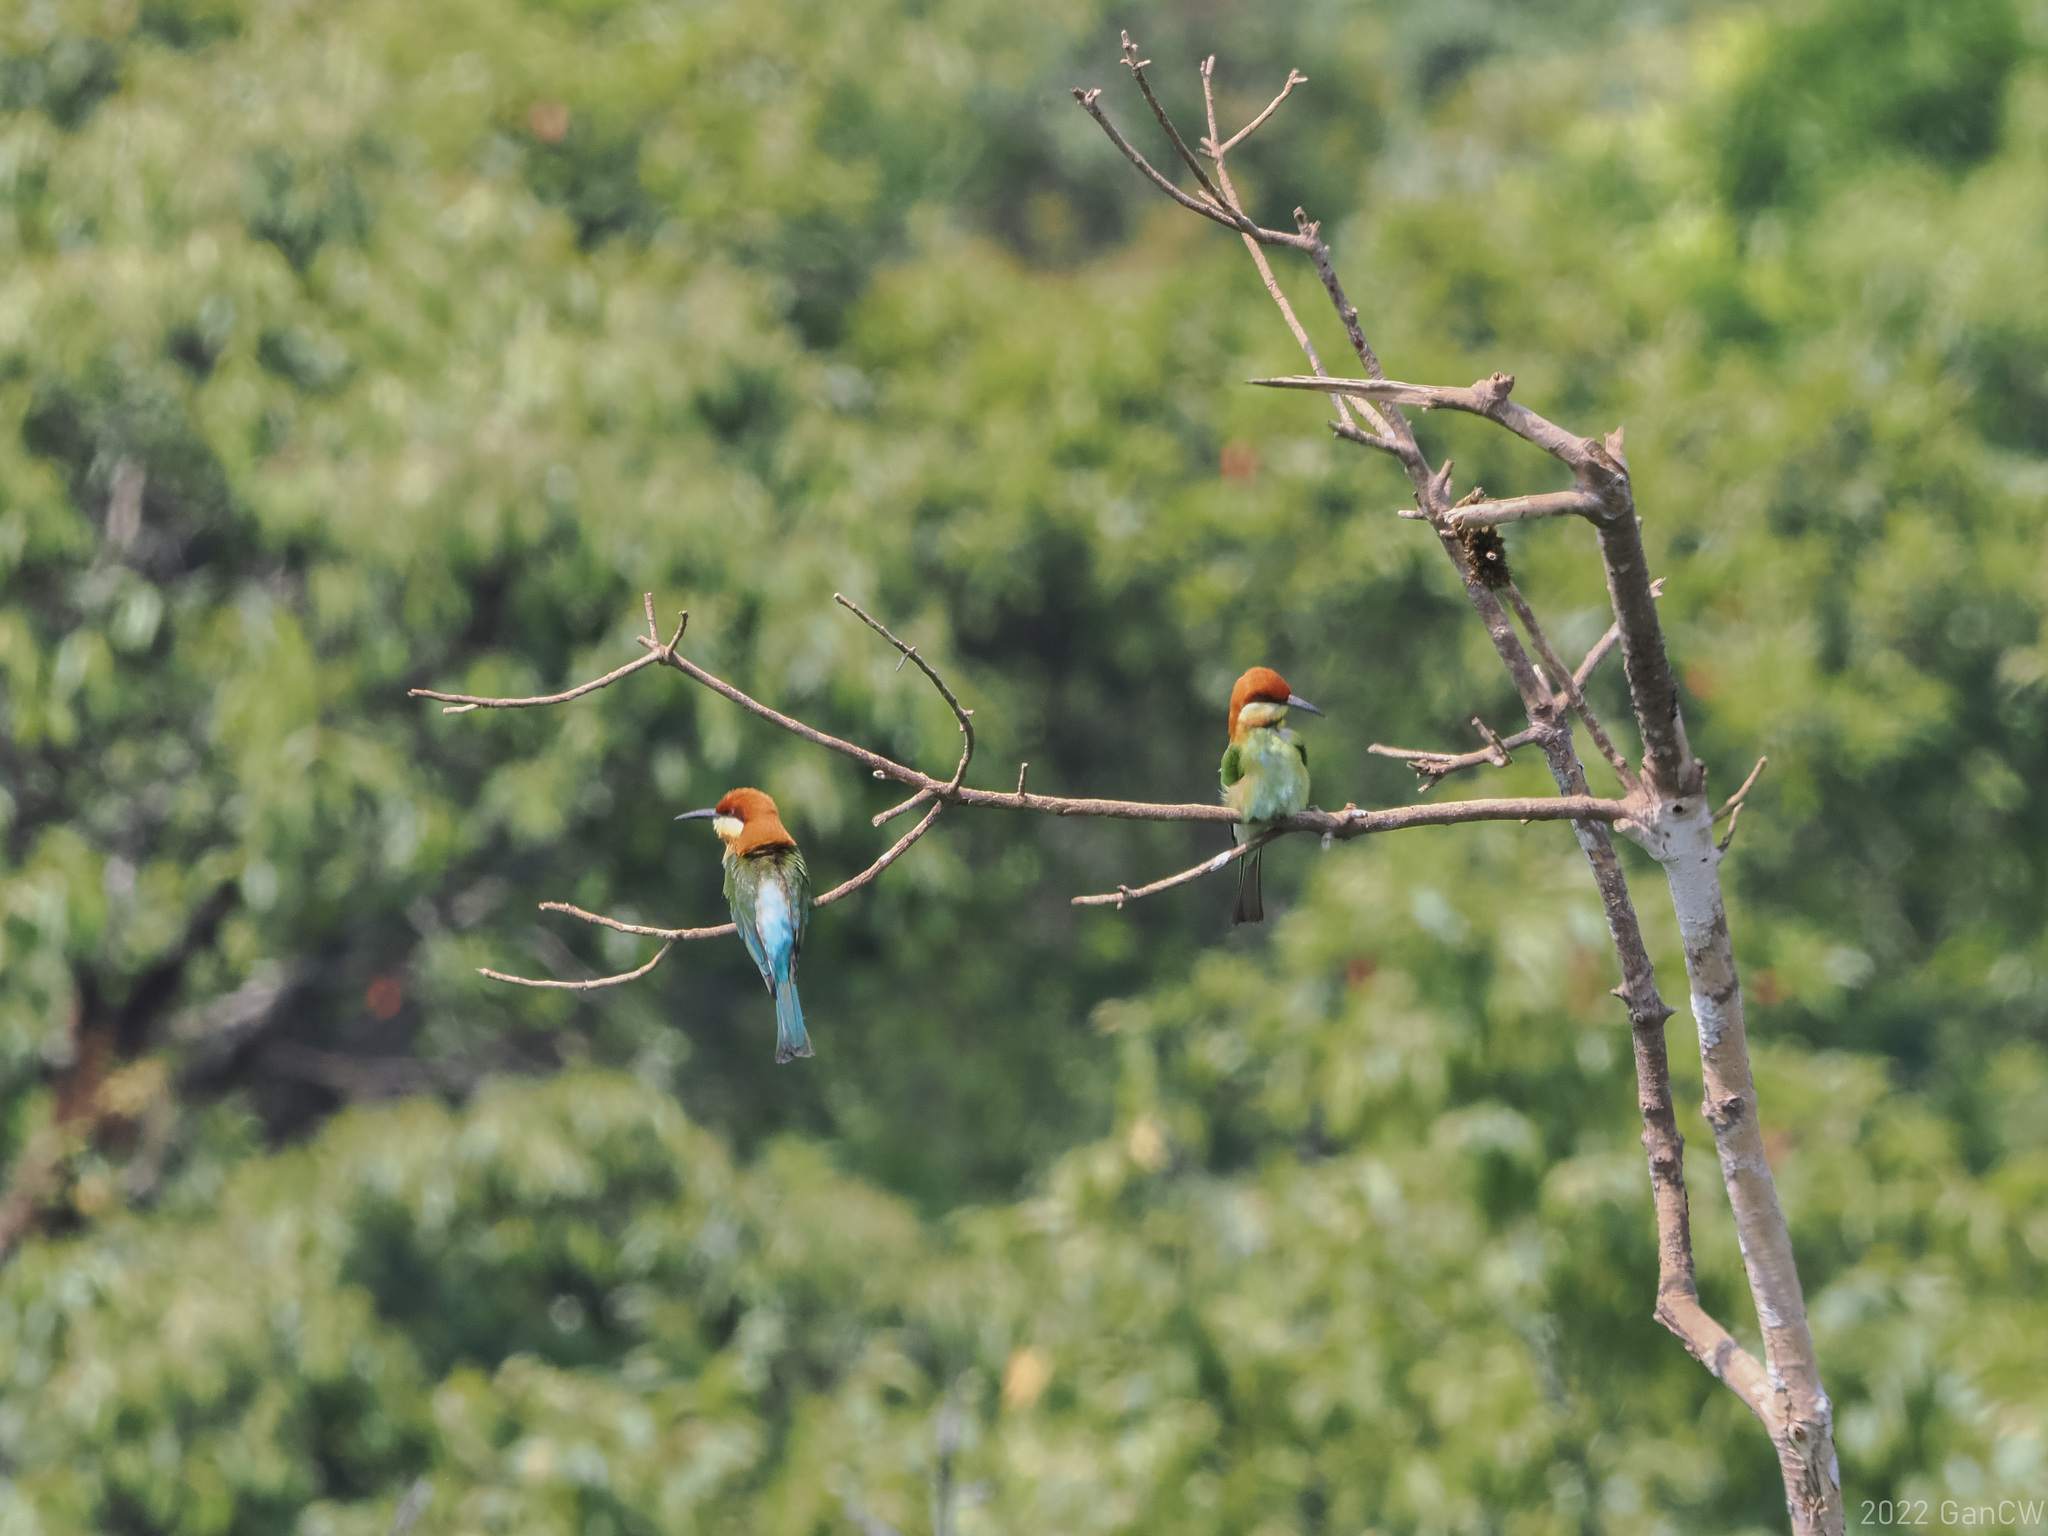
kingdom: Animalia
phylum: Chordata
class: Aves
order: Coraciiformes
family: Meropidae
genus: Merops
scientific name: Merops leschenaulti
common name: Chestnut-headed bee-eater
